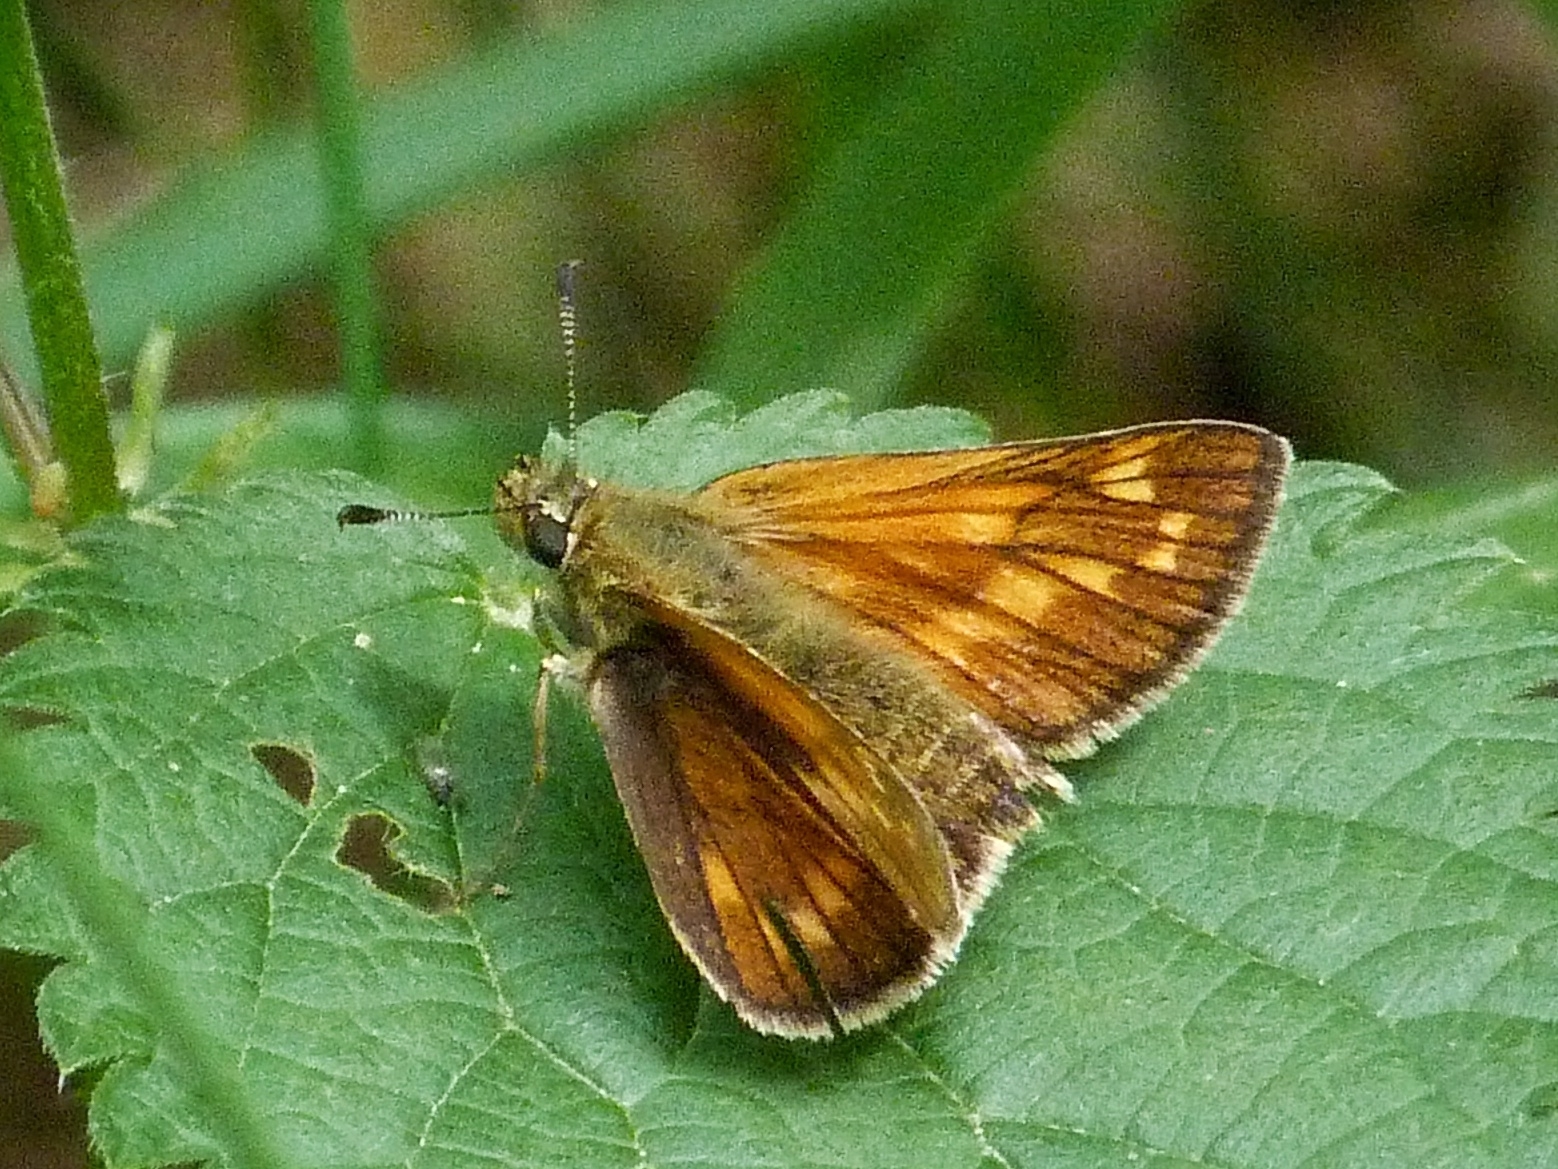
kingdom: Animalia
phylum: Arthropoda
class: Insecta
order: Lepidoptera
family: Hesperiidae
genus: Ochlodes
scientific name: Ochlodes venata
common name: Large skipper
